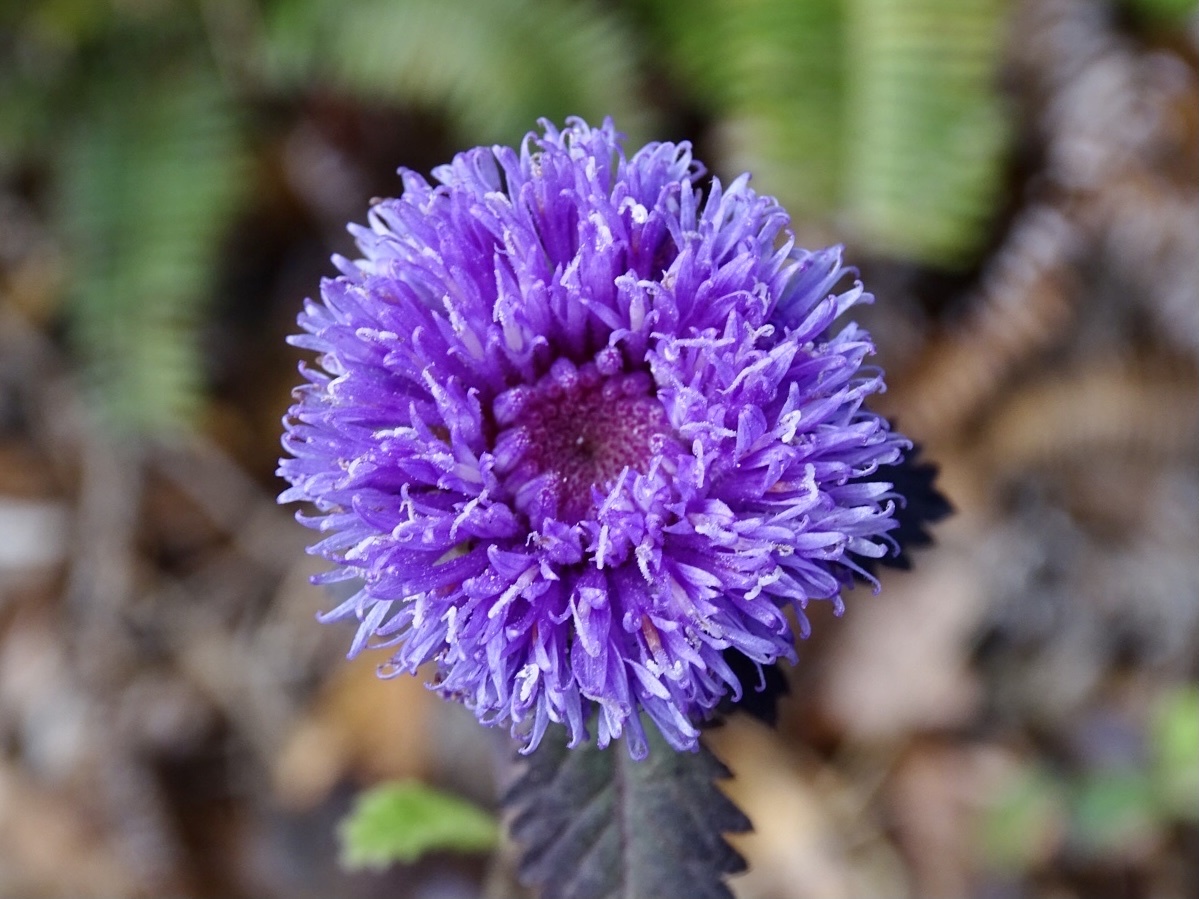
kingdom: Plantae
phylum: Tracheophyta
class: Magnoliopsida
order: Asterales
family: Asteraceae
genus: Centratherum
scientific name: Centratherum punctatum
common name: Larkdaisy
